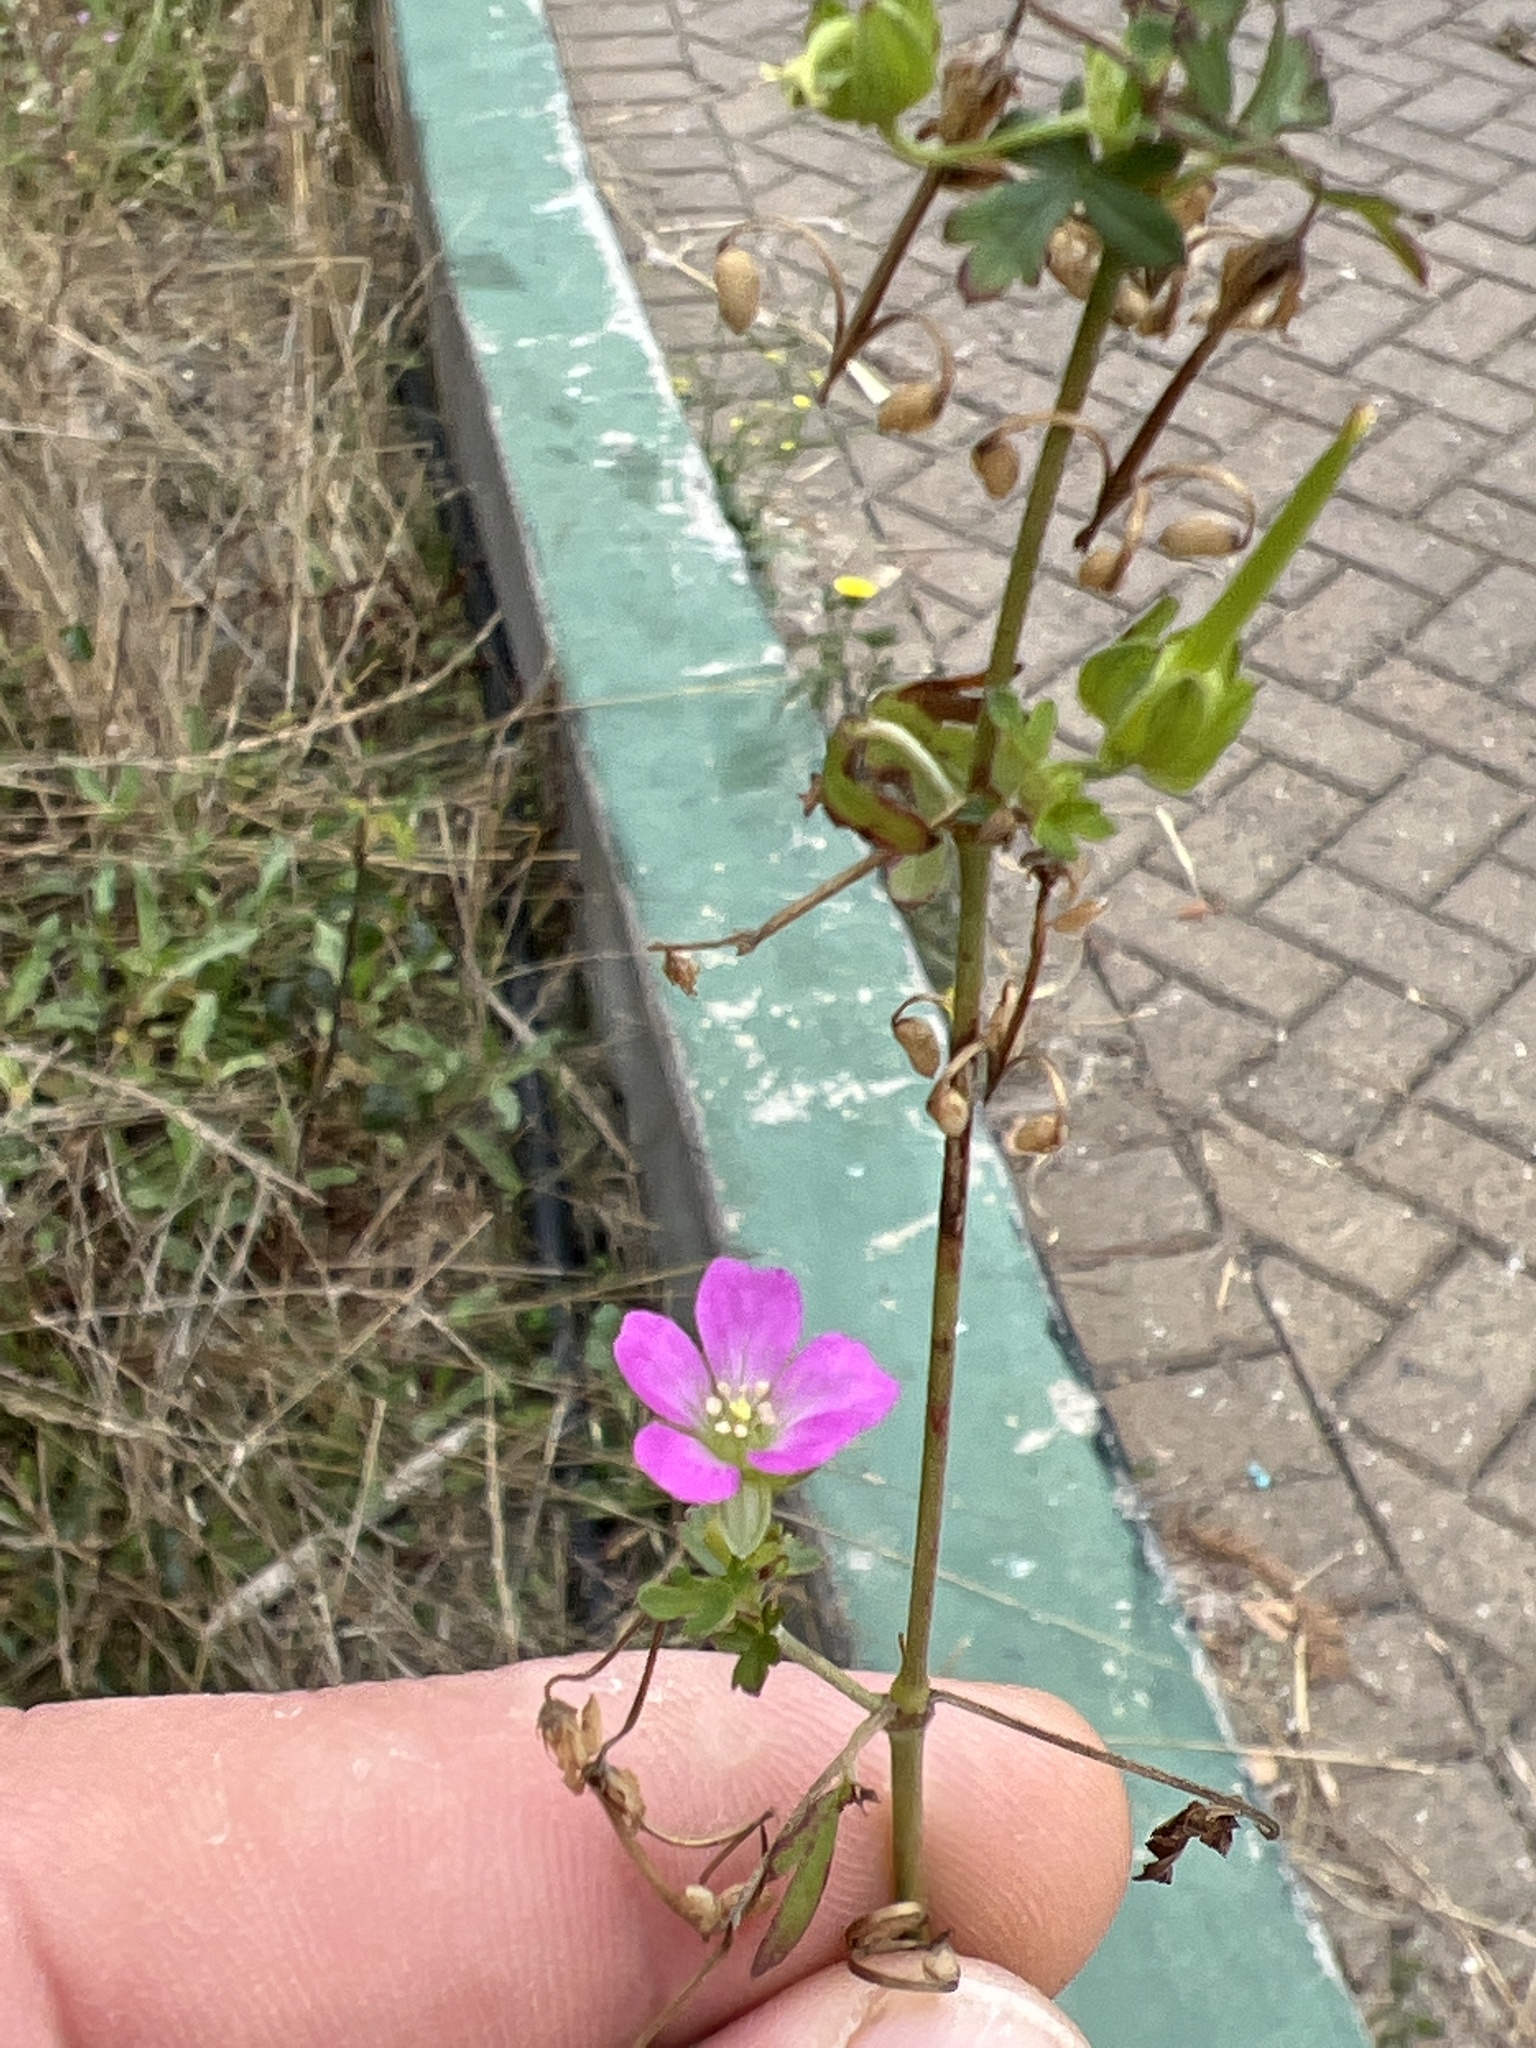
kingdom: Plantae
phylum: Tracheophyta
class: Magnoliopsida
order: Geraniales
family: Geraniaceae
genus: Geranium
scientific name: Geranium core-core
